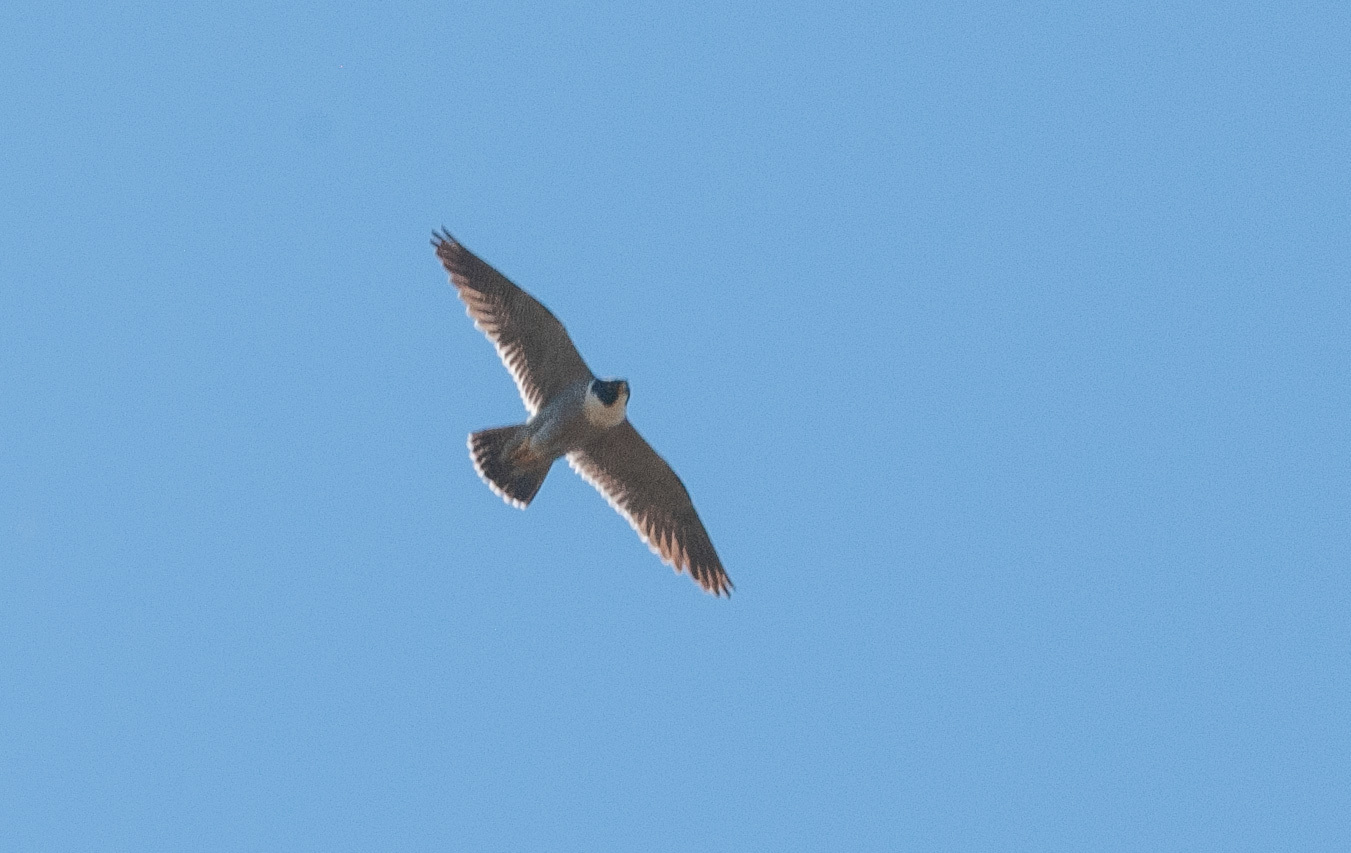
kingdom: Animalia
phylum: Chordata
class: Aves
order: Falconiformes
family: Falconidae
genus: Falco
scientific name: Falco peregrinus
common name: Peregrine falcon
